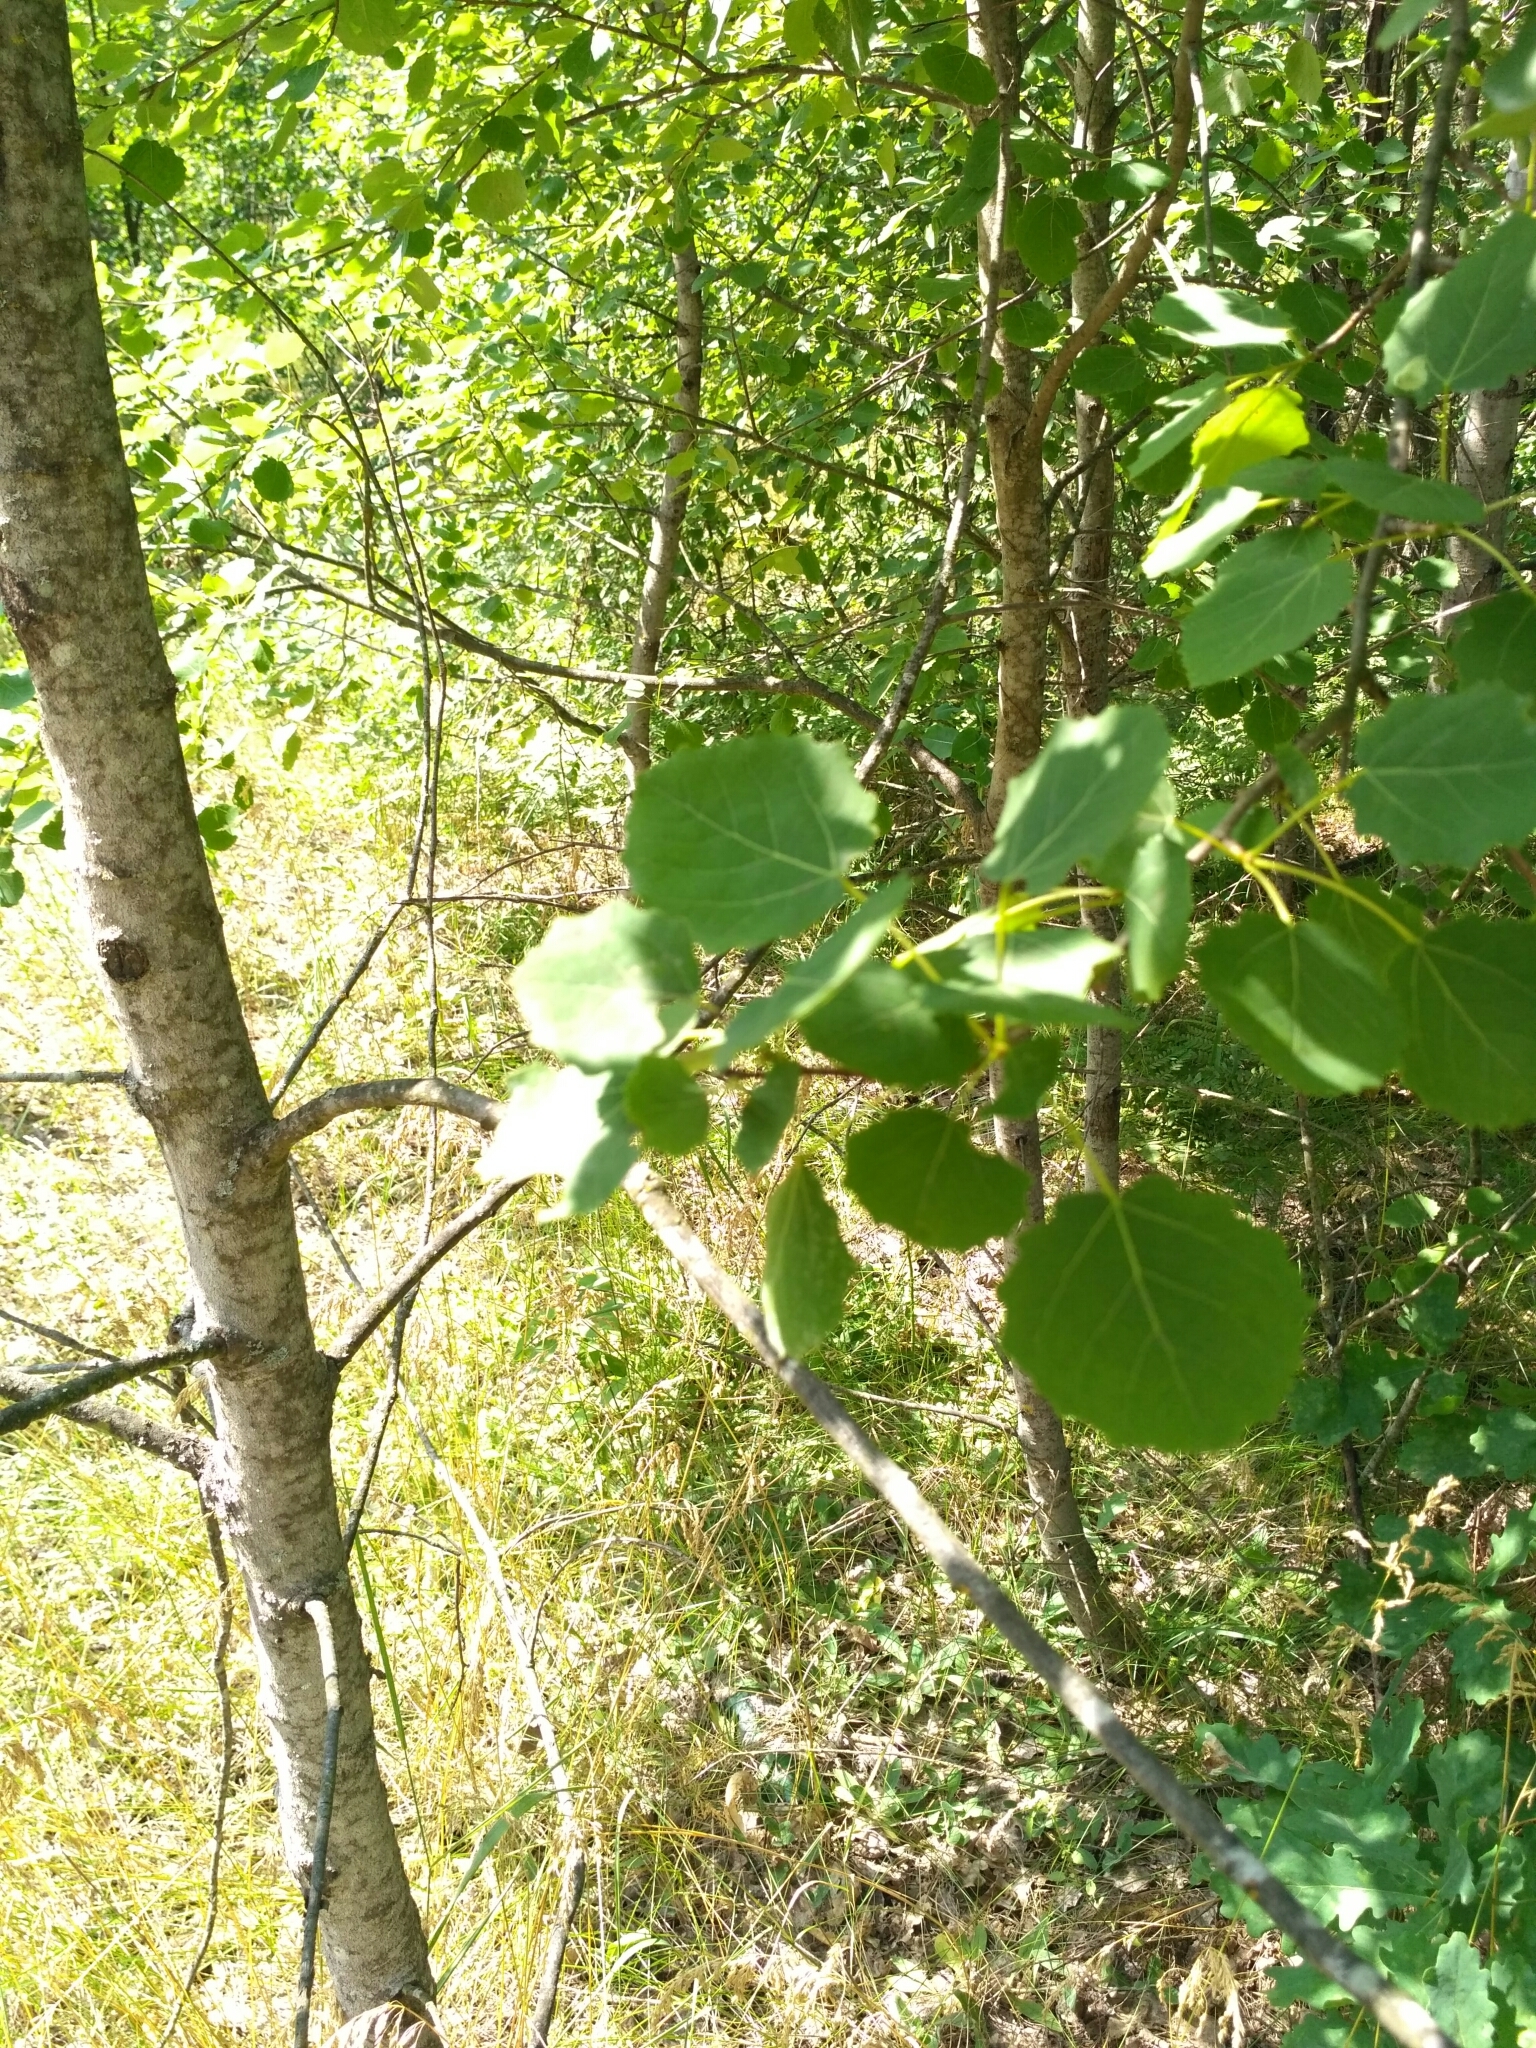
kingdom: Plantae
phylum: Tracheophyta
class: Magnoliopsida
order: Malpighiales
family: Salicaceae
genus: Populus
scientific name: Populus tremula
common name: European aspen
